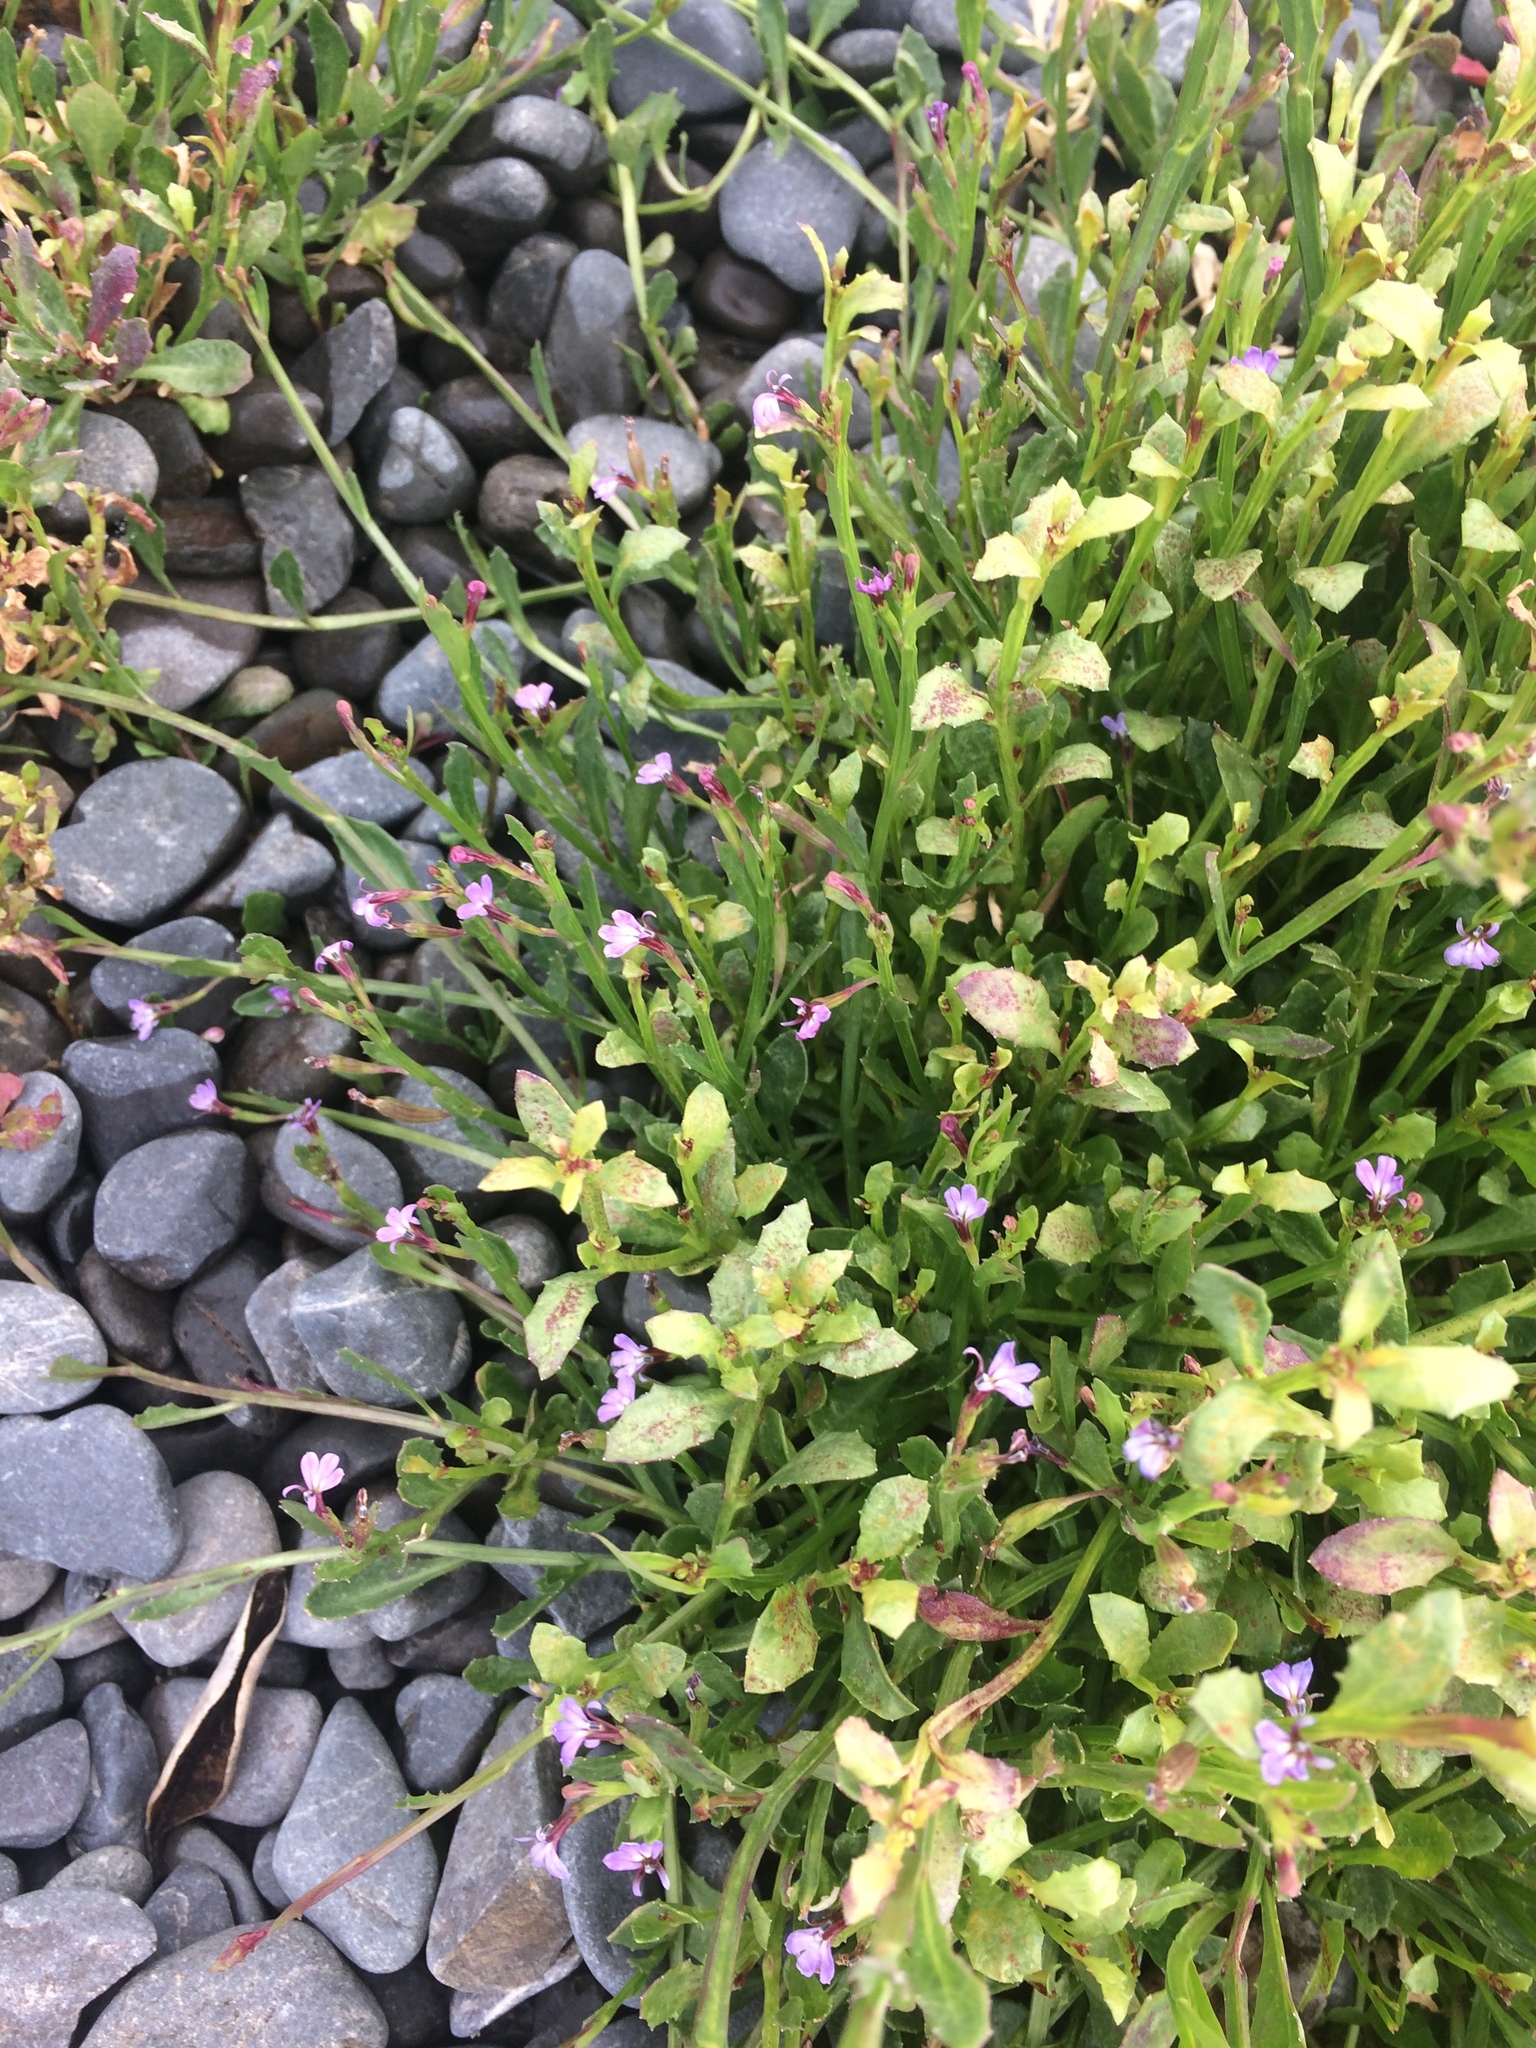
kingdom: Plantae
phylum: Tracheophyta
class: Magnoliopsida
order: Asterales
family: Campanulaceae
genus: Lobelia
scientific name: Lobelia anceps
